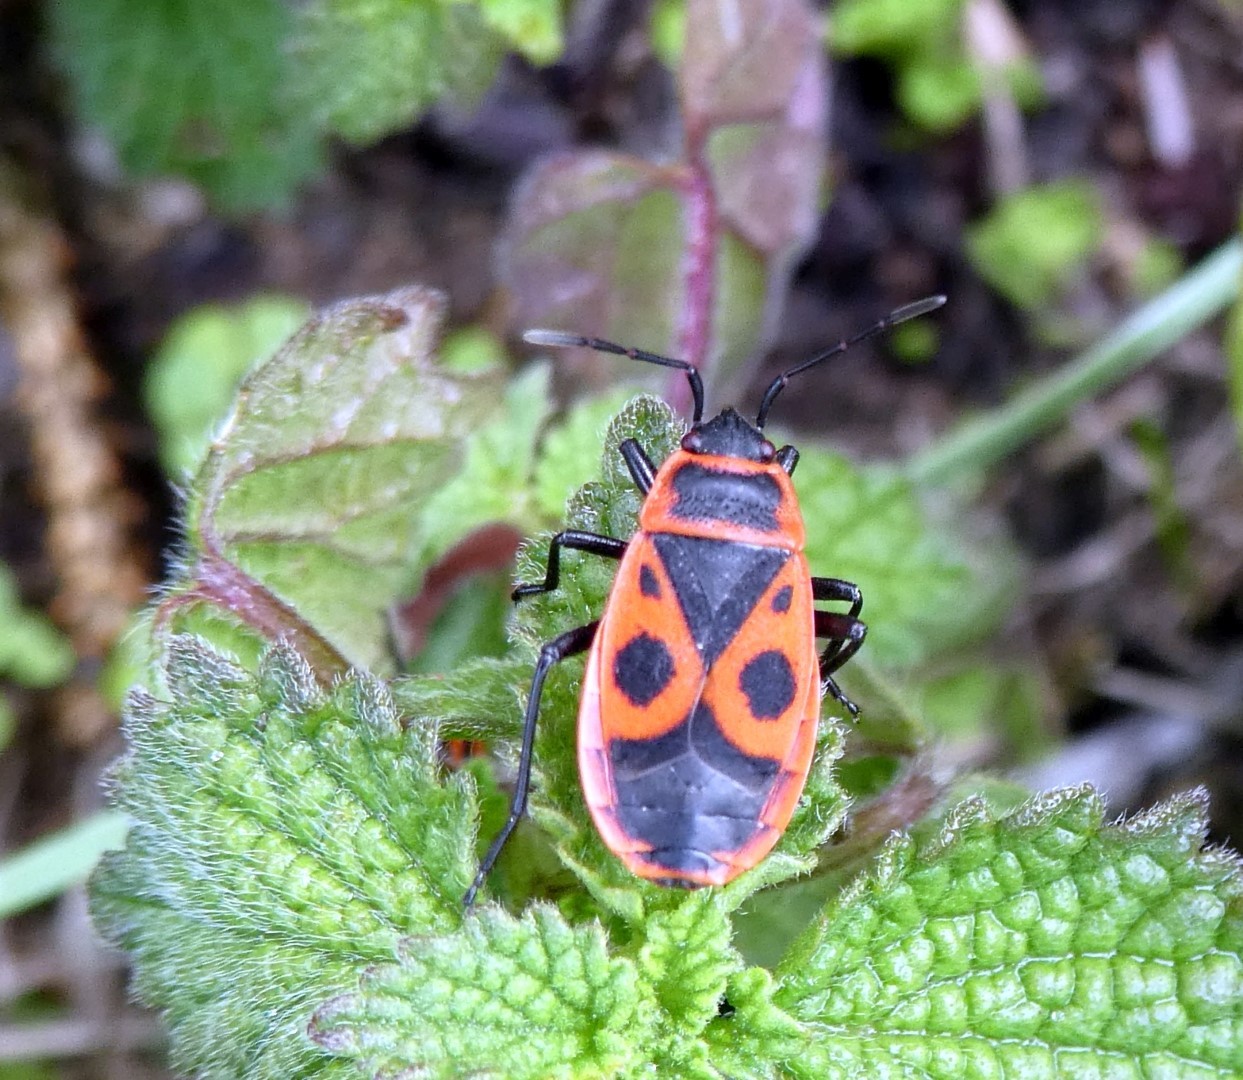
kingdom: Animalia
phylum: Arthropoda
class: Insecta
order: Hemiptera
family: Pyrrhocoridae
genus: Pyrrhocoris
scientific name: Pyrrhocoris apterus
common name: Firebug
